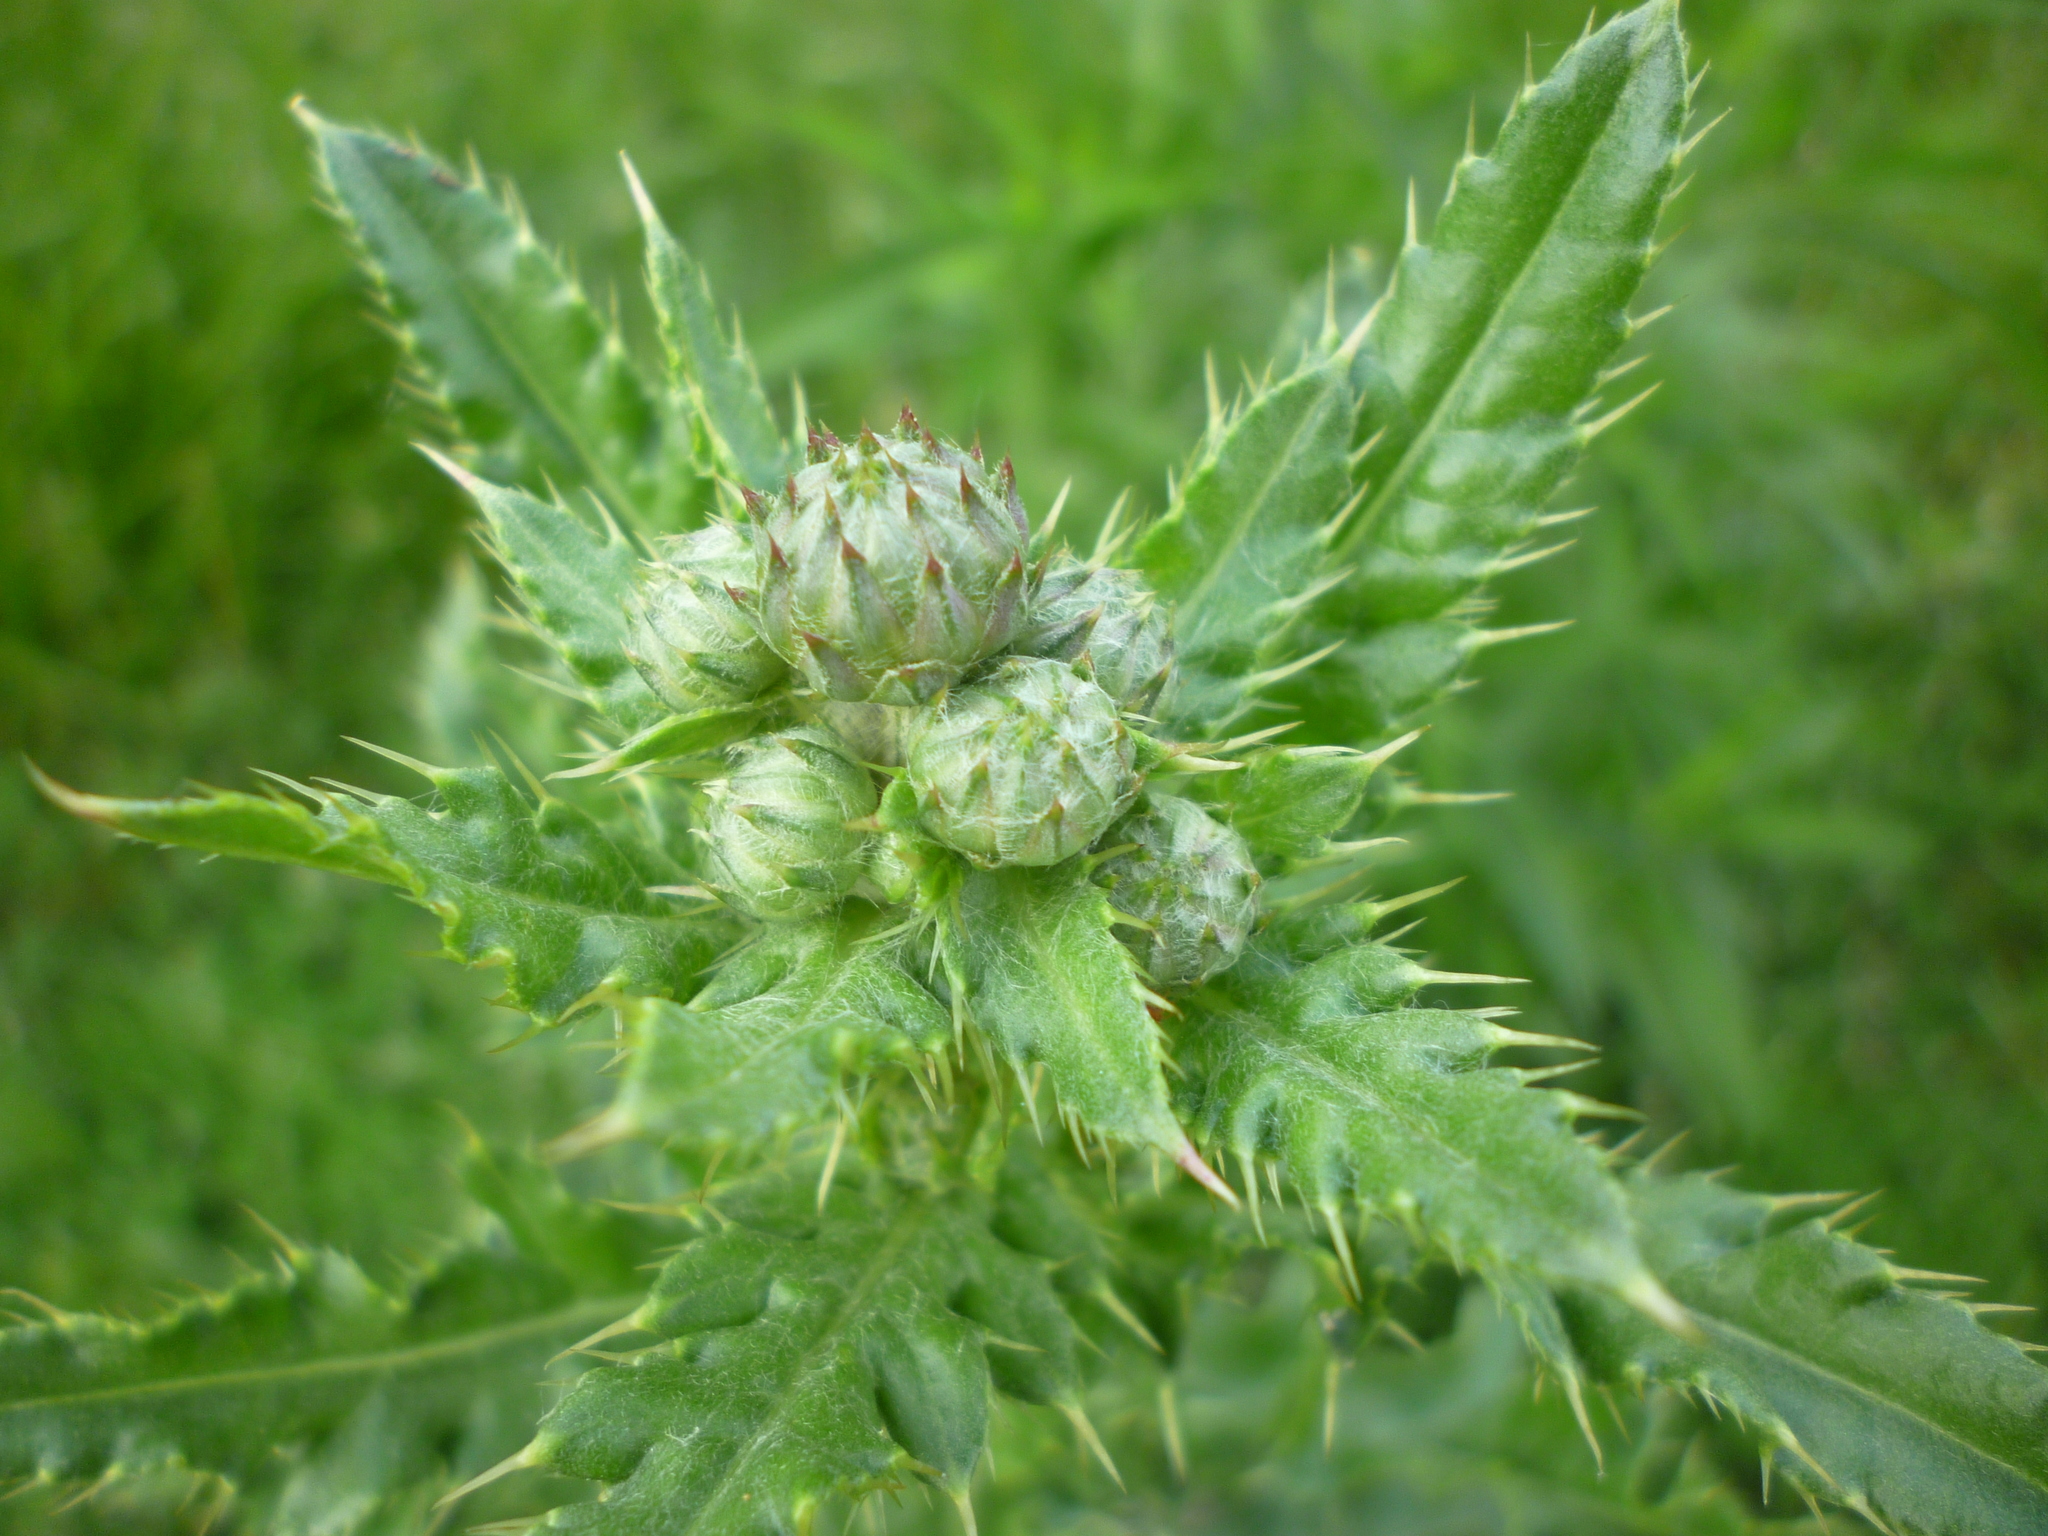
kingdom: Plantae
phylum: Tracheophyta
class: Magnoliopsida
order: Asterales
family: Asteraceae
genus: Cirsium
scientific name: Cirsium arvense
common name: Creeping thistle
